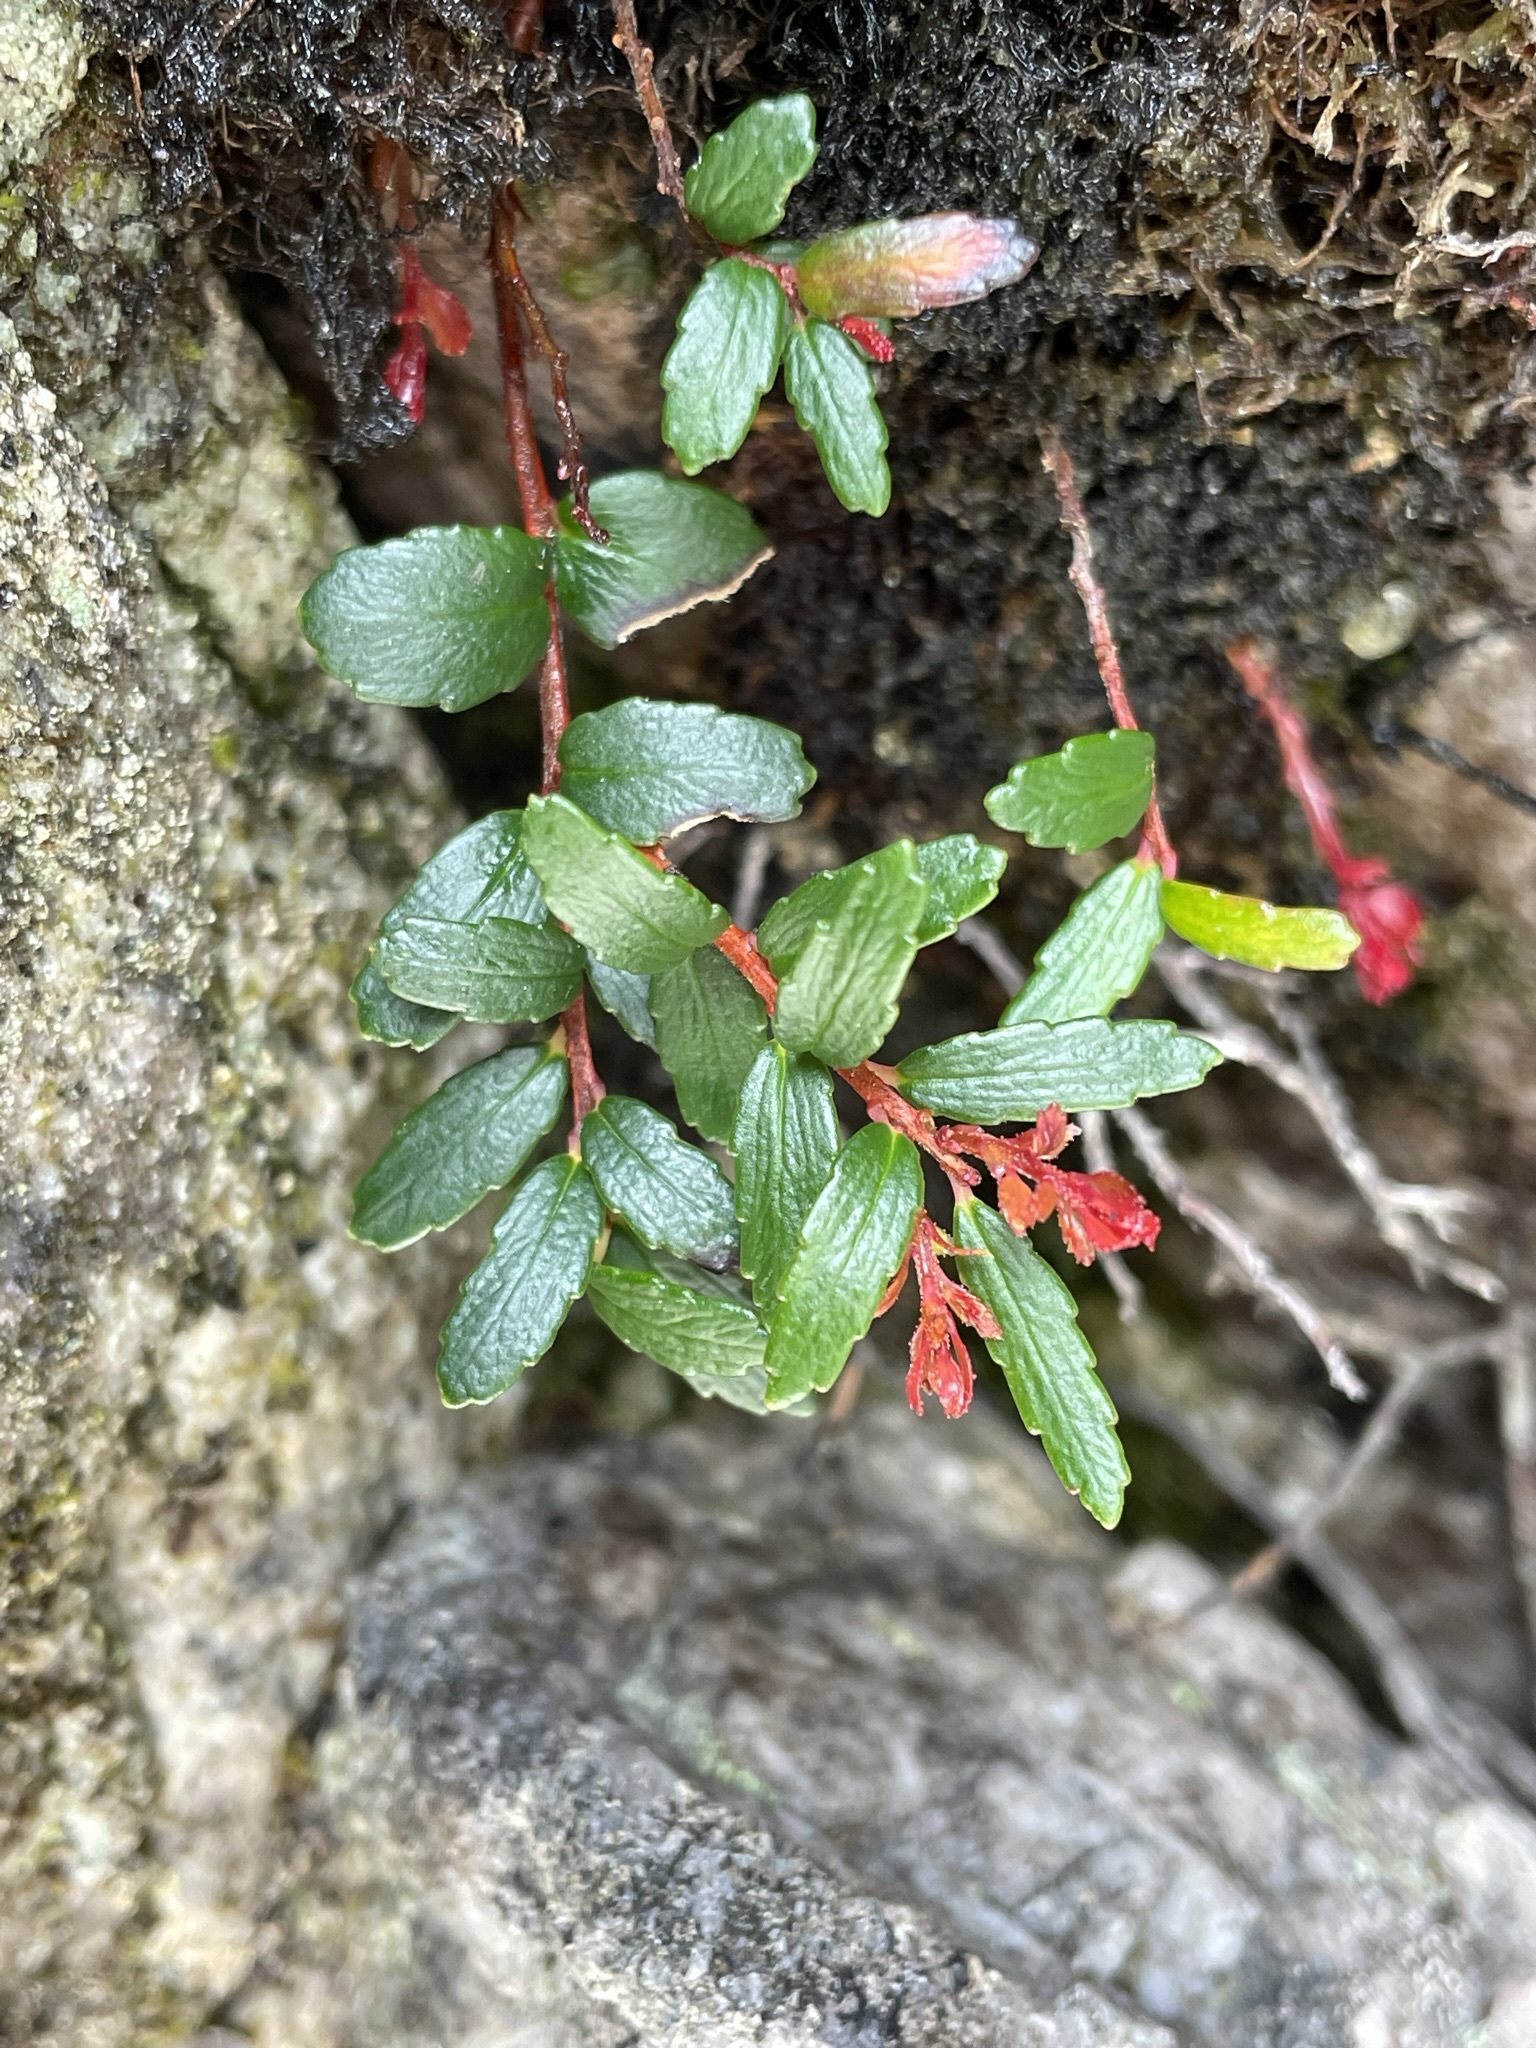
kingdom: Plantae
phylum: Tracheophyta
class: Magnoliopsida
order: Ericales
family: Ericaceae
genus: Prionotes
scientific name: Prionotes cerinthoides
